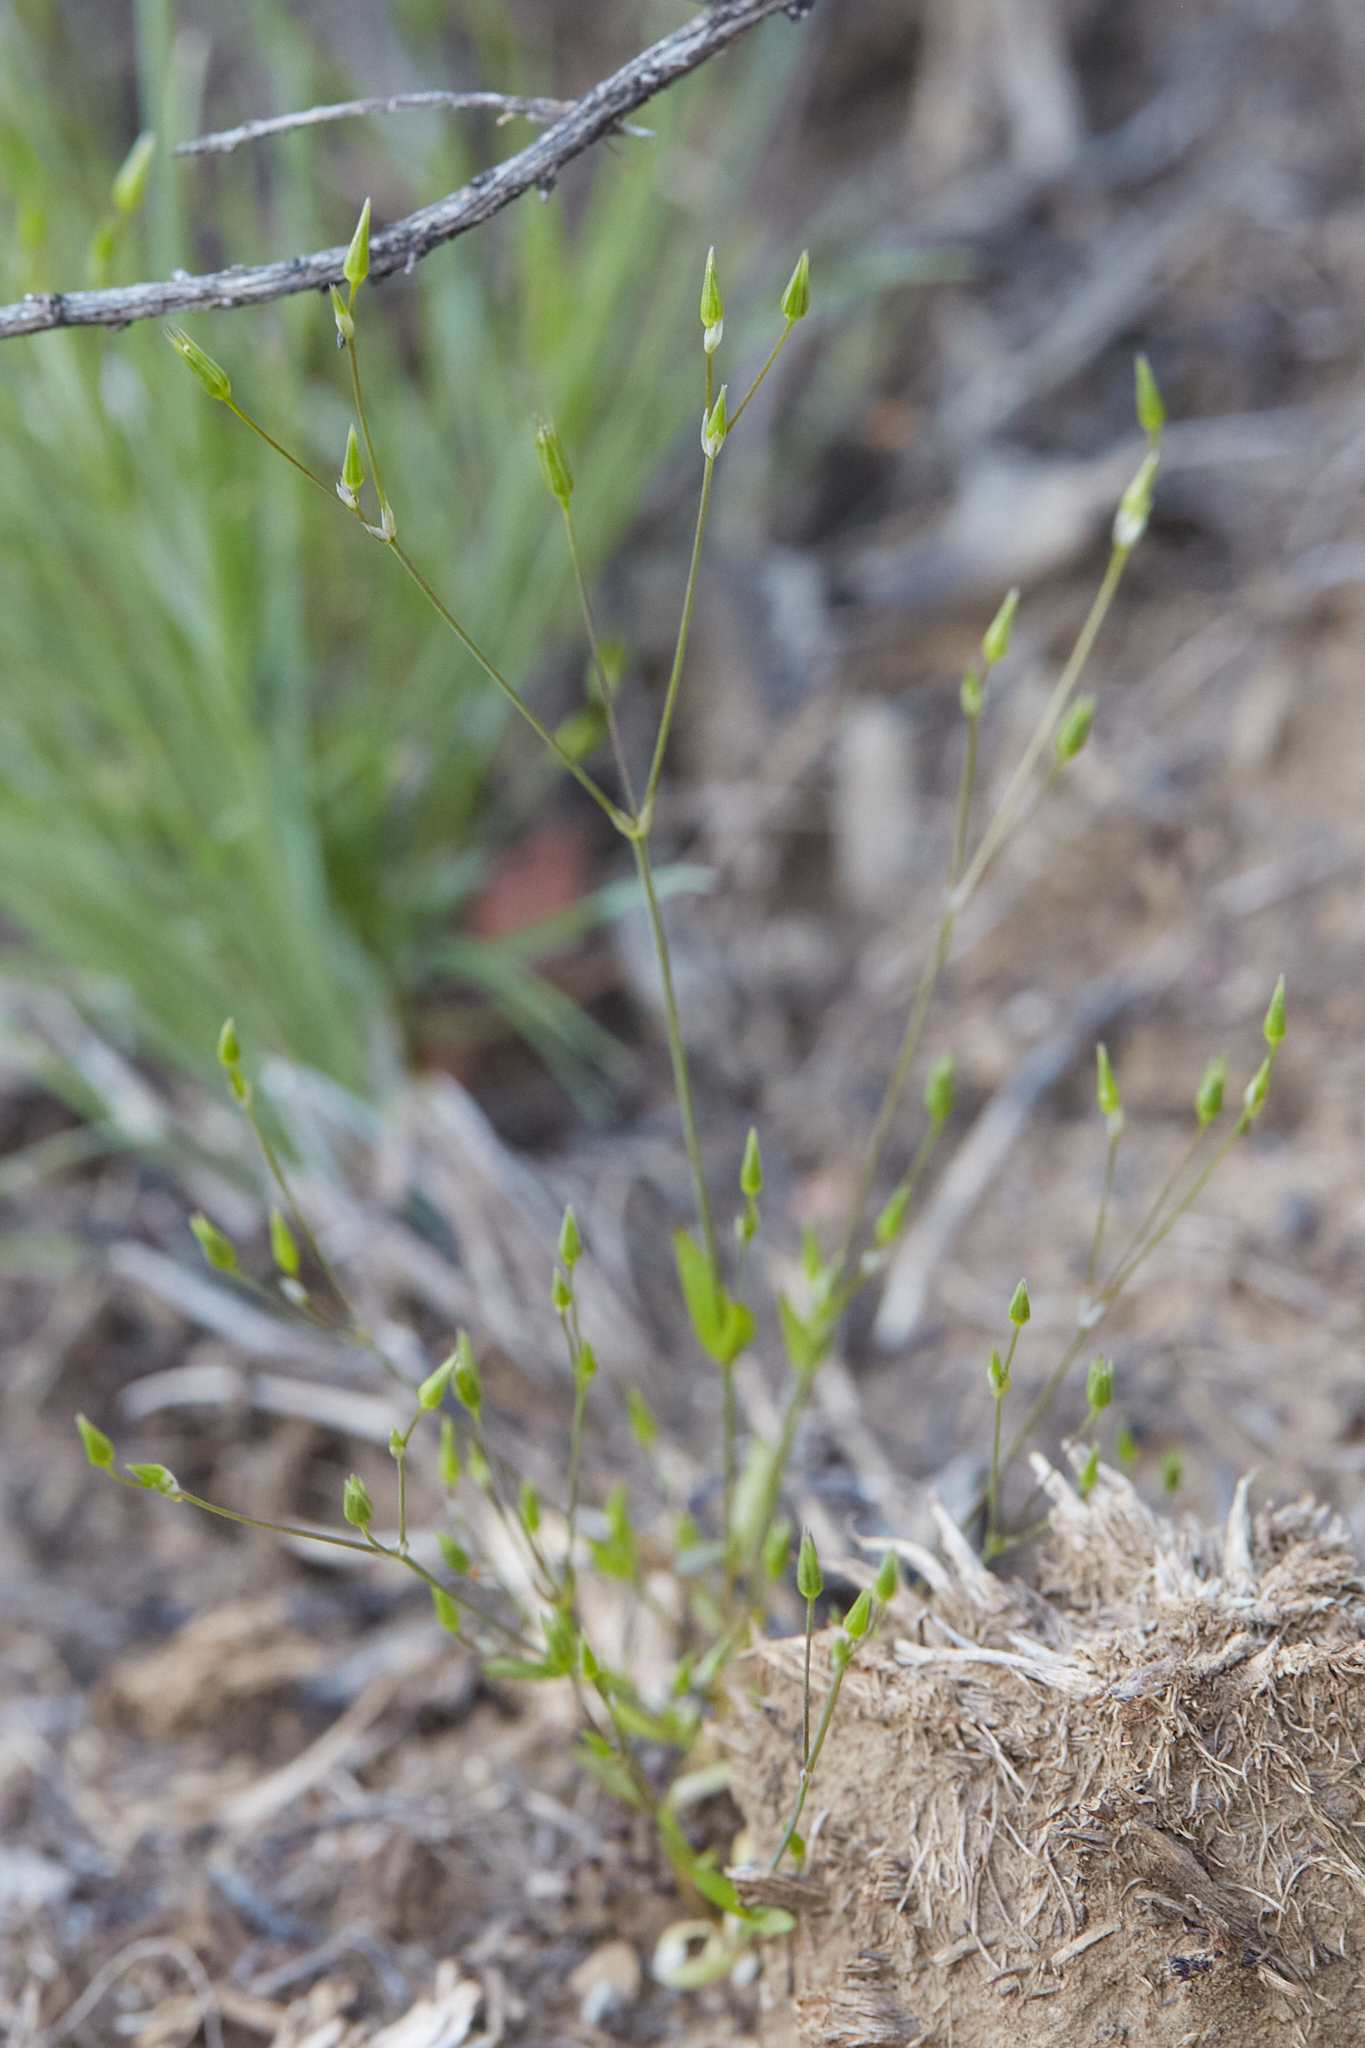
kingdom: Plantae
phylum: Tracheophyta
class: Magnoliopsida
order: Caryophyllales
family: Caryophyllaceae
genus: Stellaria
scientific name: Stellaria nitens
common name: Shining starwort
